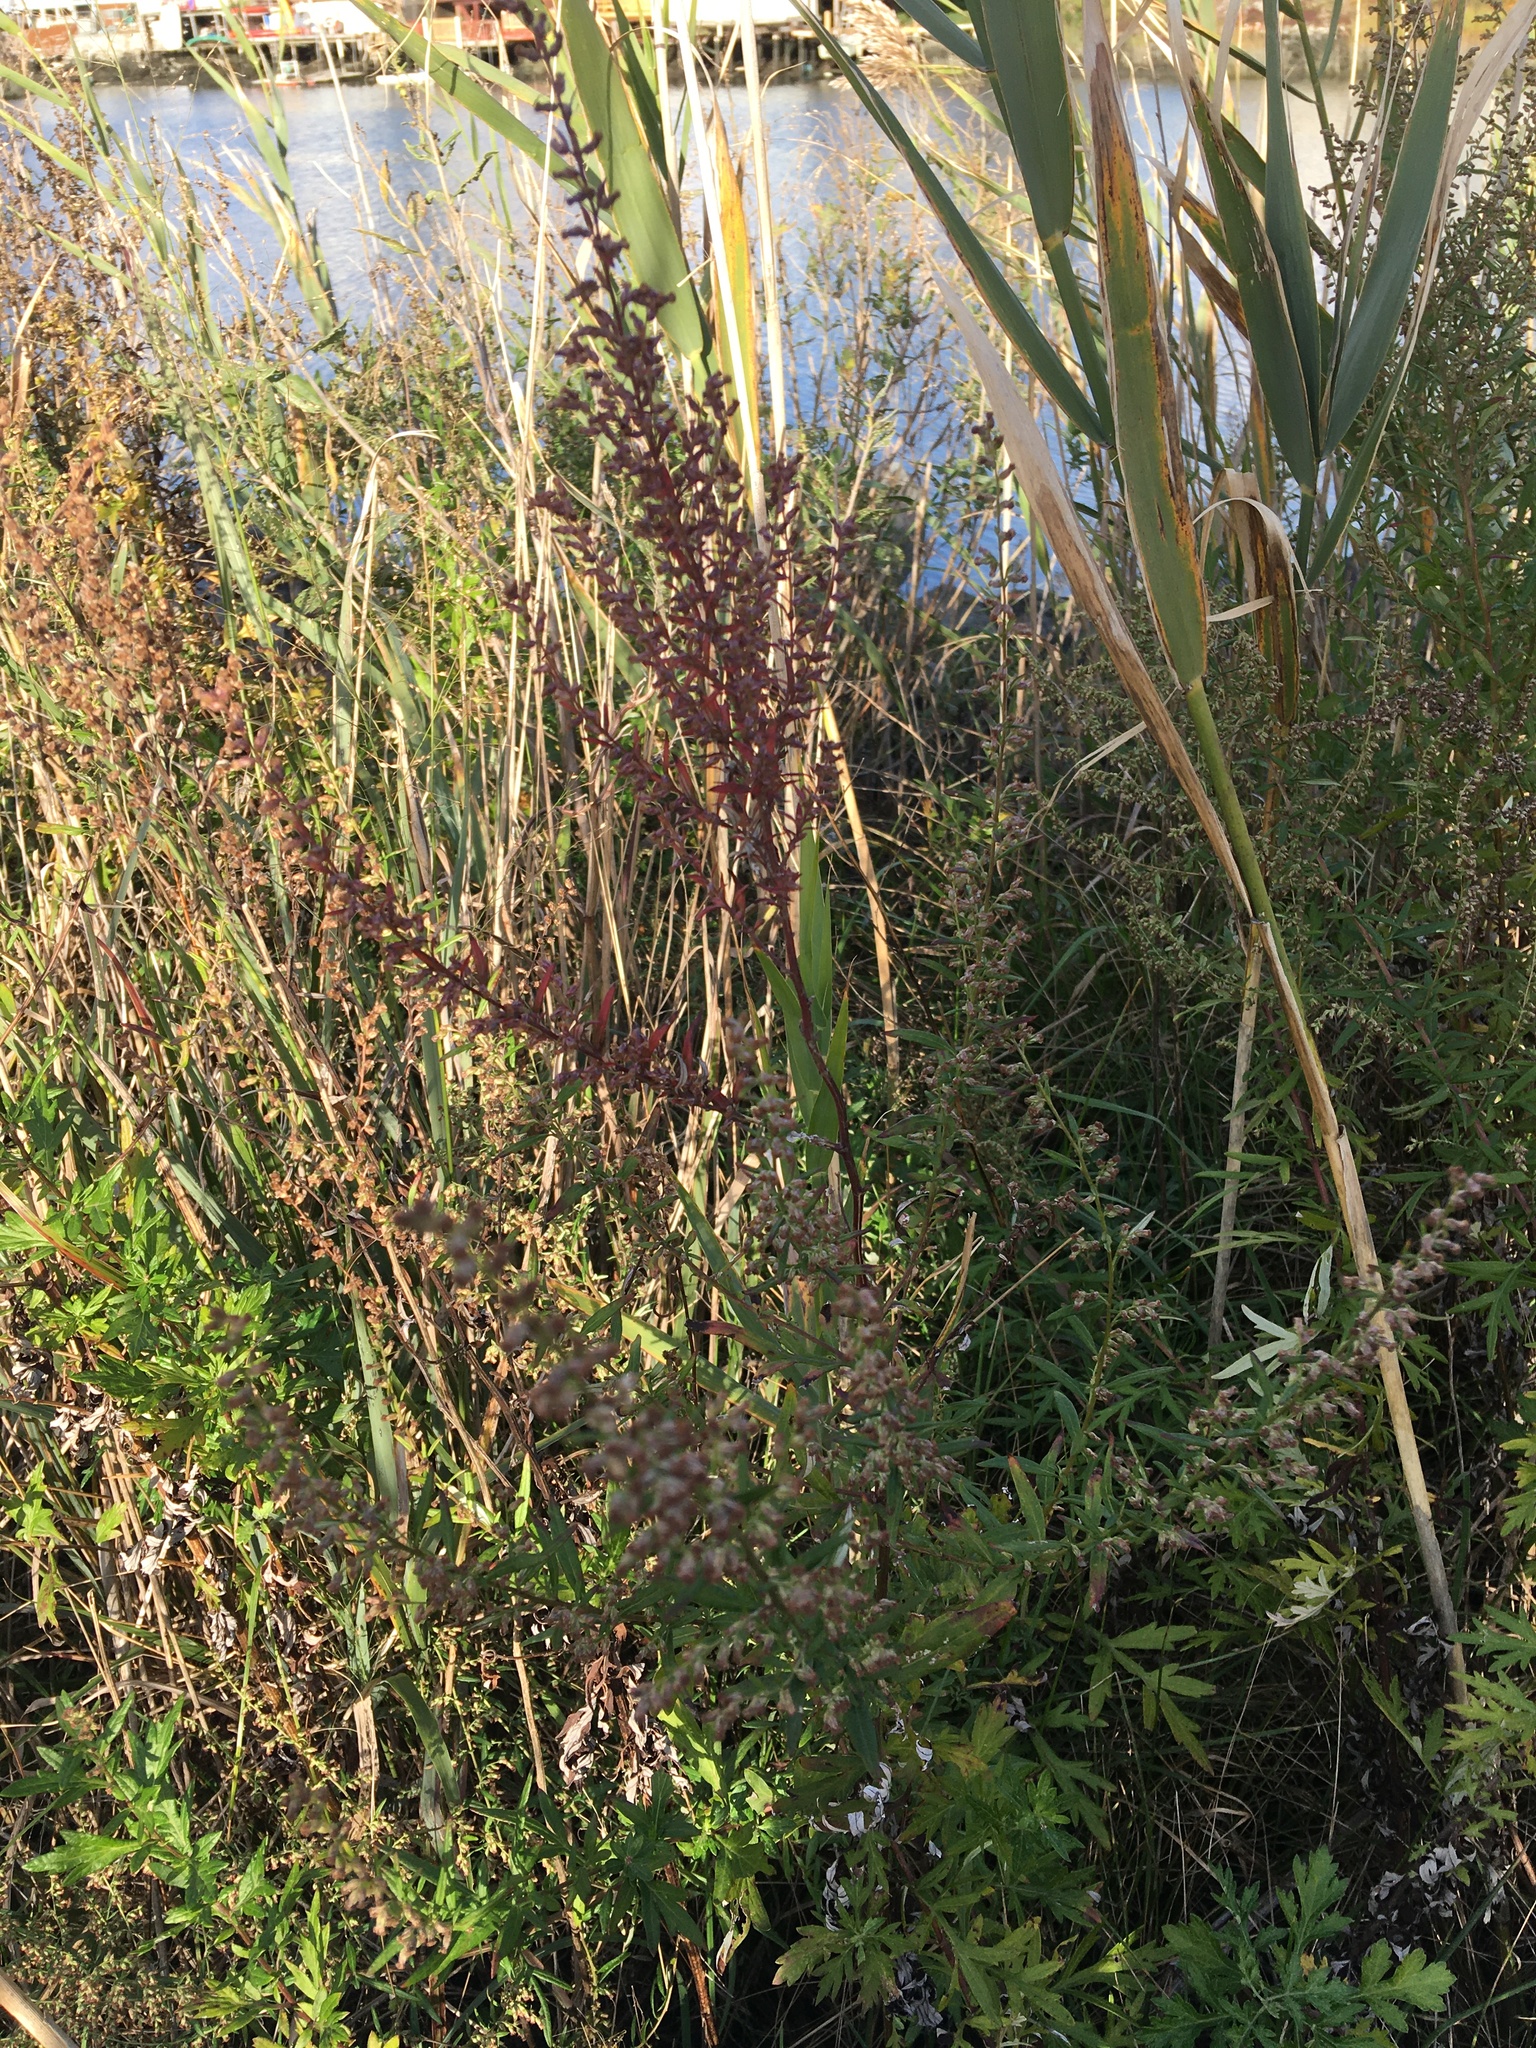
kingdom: Plantae
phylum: Tracheophyta
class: Magnoliopsida
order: Asterales
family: Asteraceae
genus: Artemisia
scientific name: Artemisia vulgaris
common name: Mugwort
